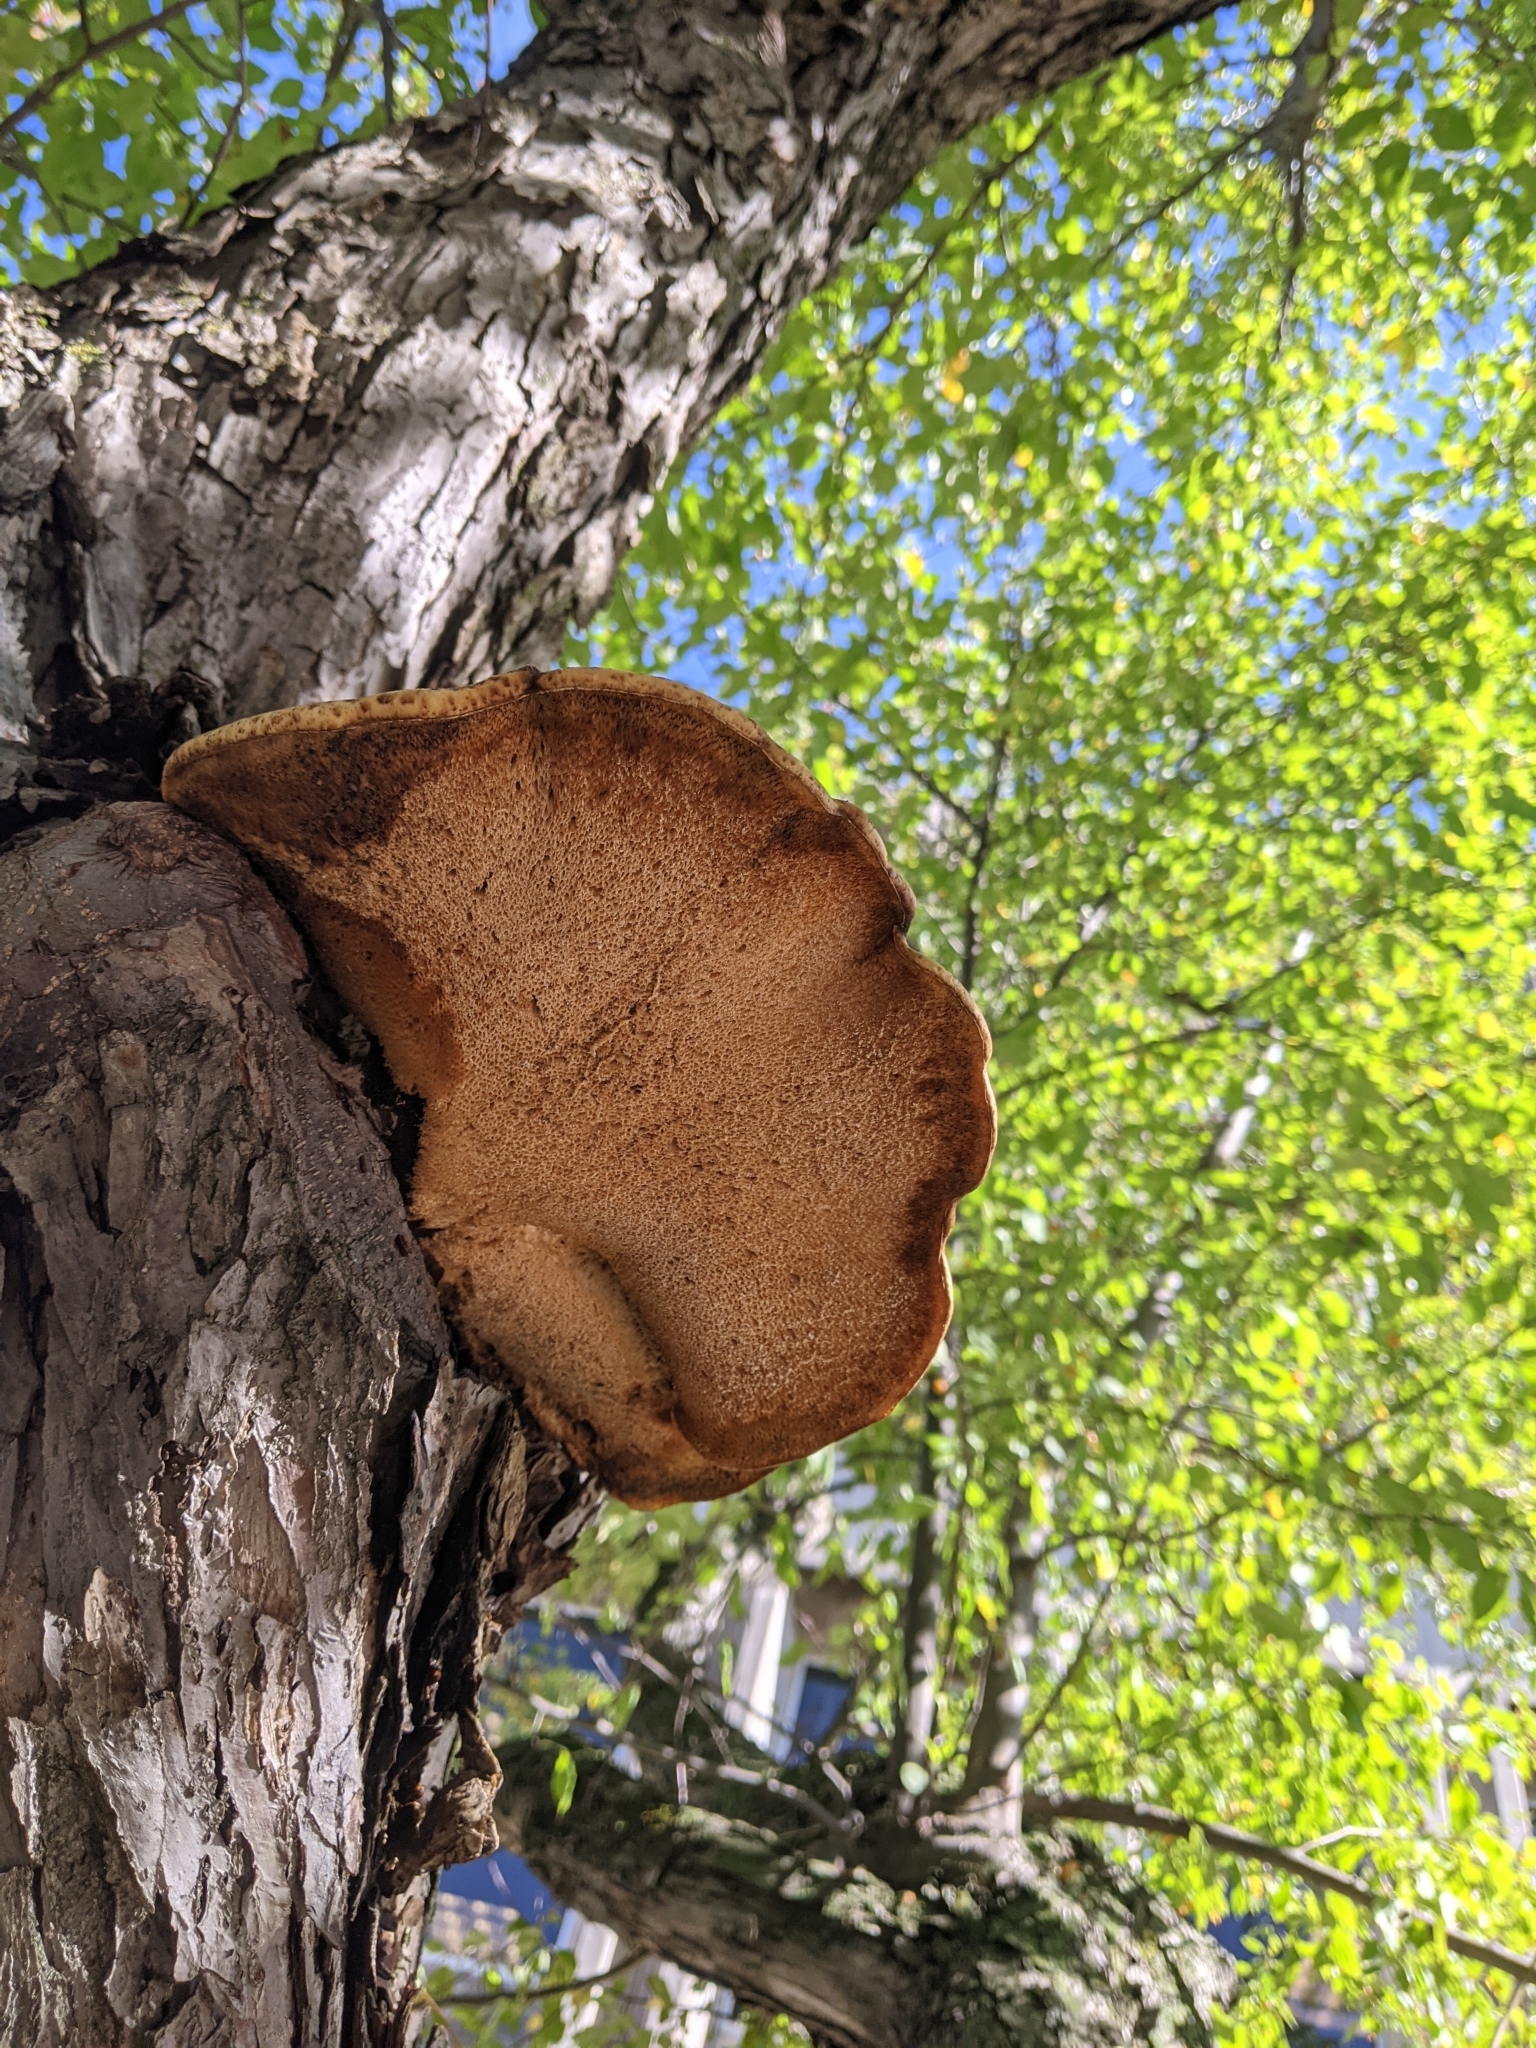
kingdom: Fungi
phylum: Basidiomycota
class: Agaricomycetes
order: Polyporales
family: Polyporaceae
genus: Cerioporus
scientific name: Cerioporus squamosus
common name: Dryad's saddle
